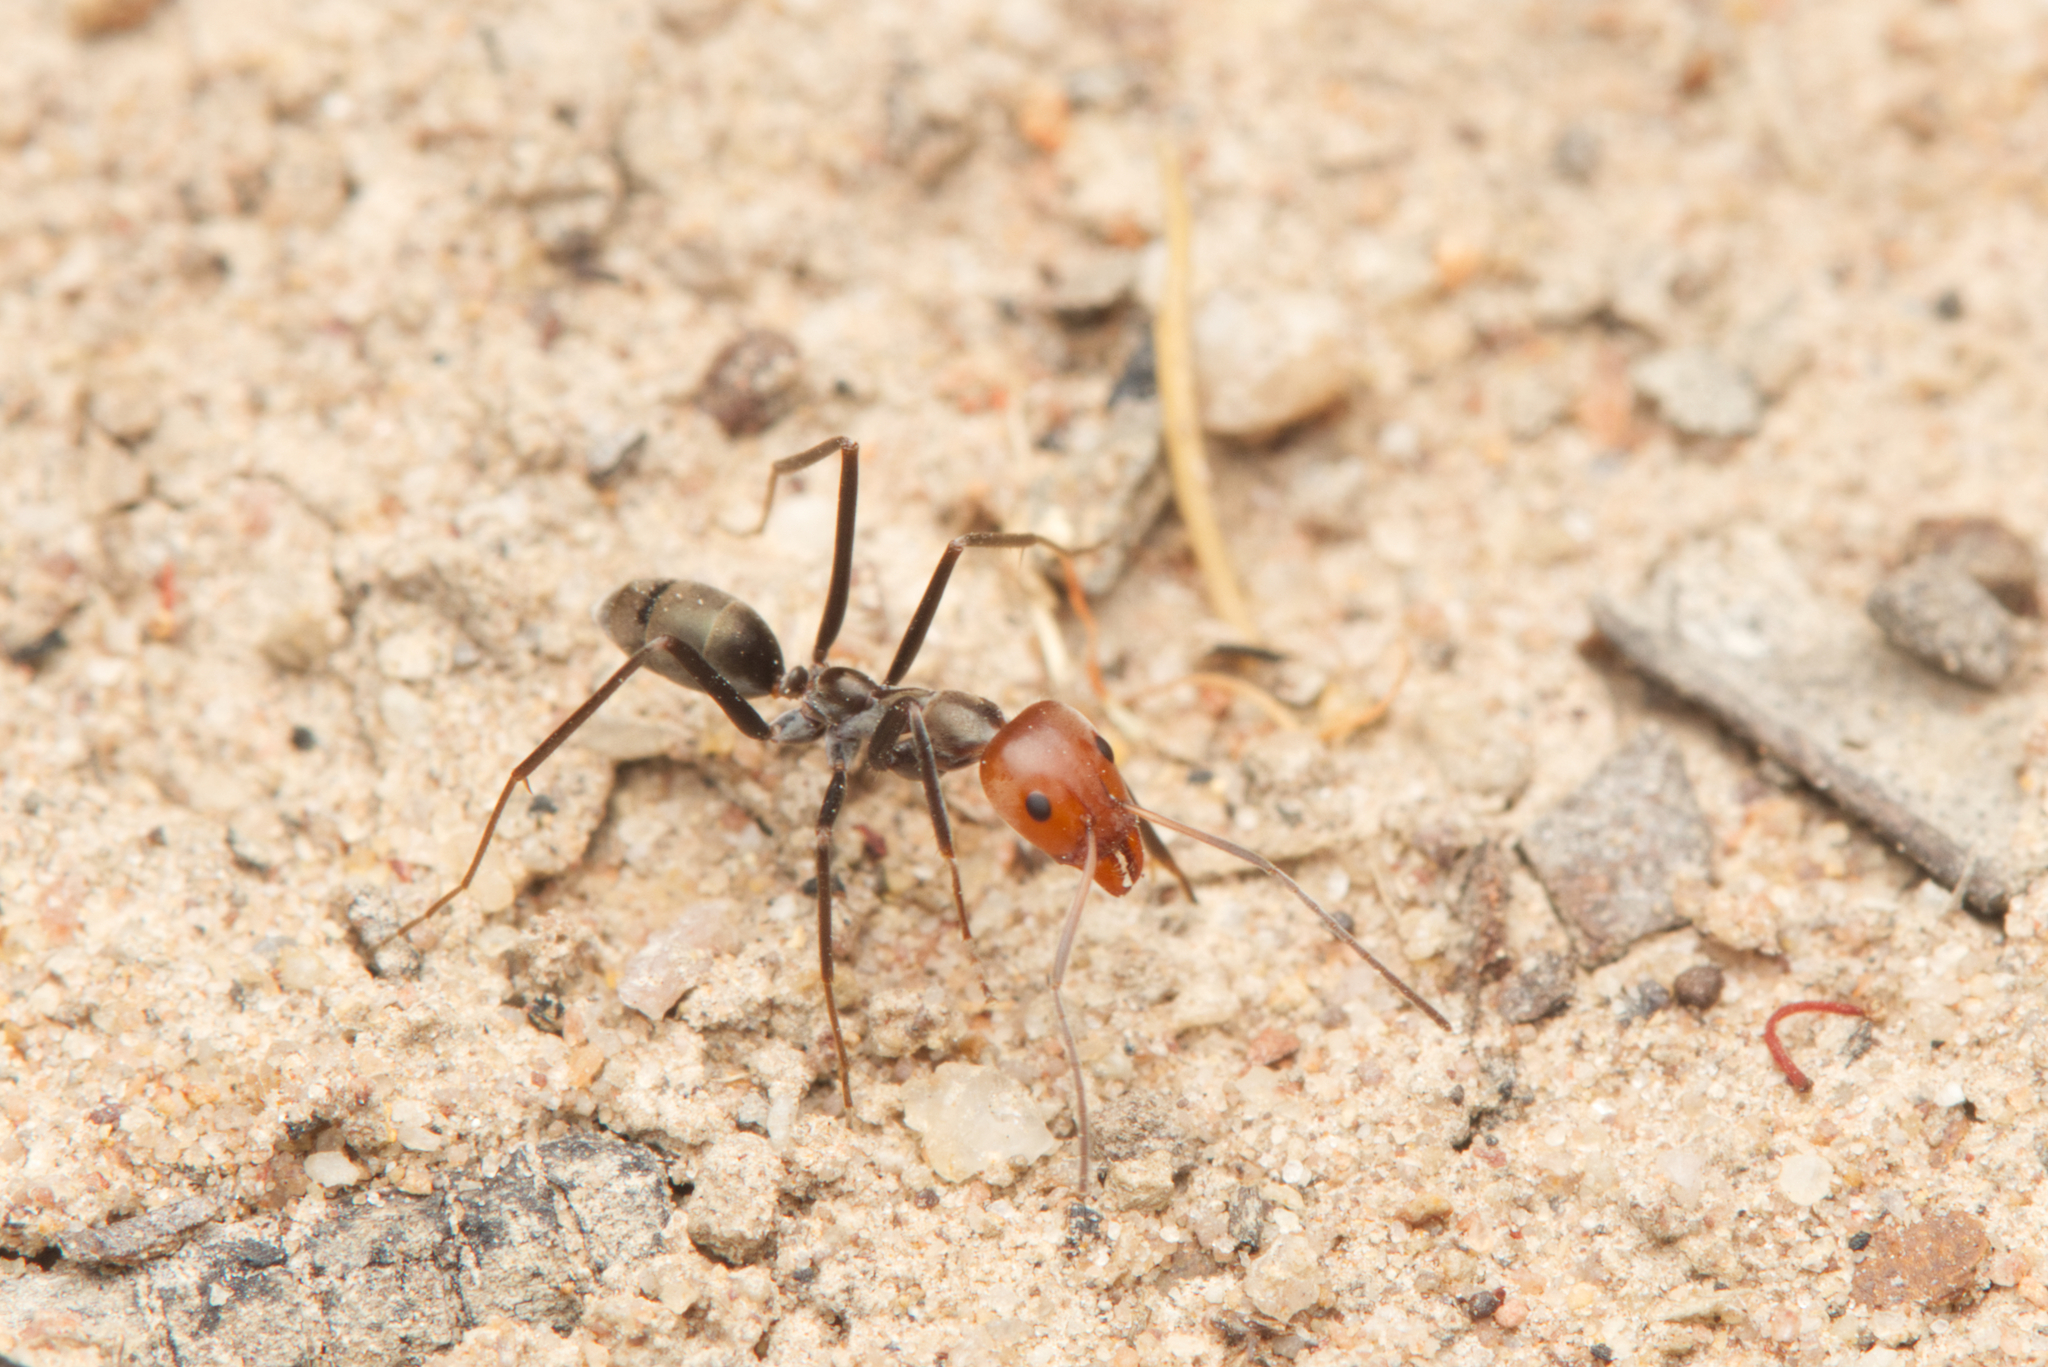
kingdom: Animalia
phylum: Arthropoda
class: Insecta
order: Hymenoptera
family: Formicidae
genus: Iridomyrmex
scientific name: Iridomyrmex
